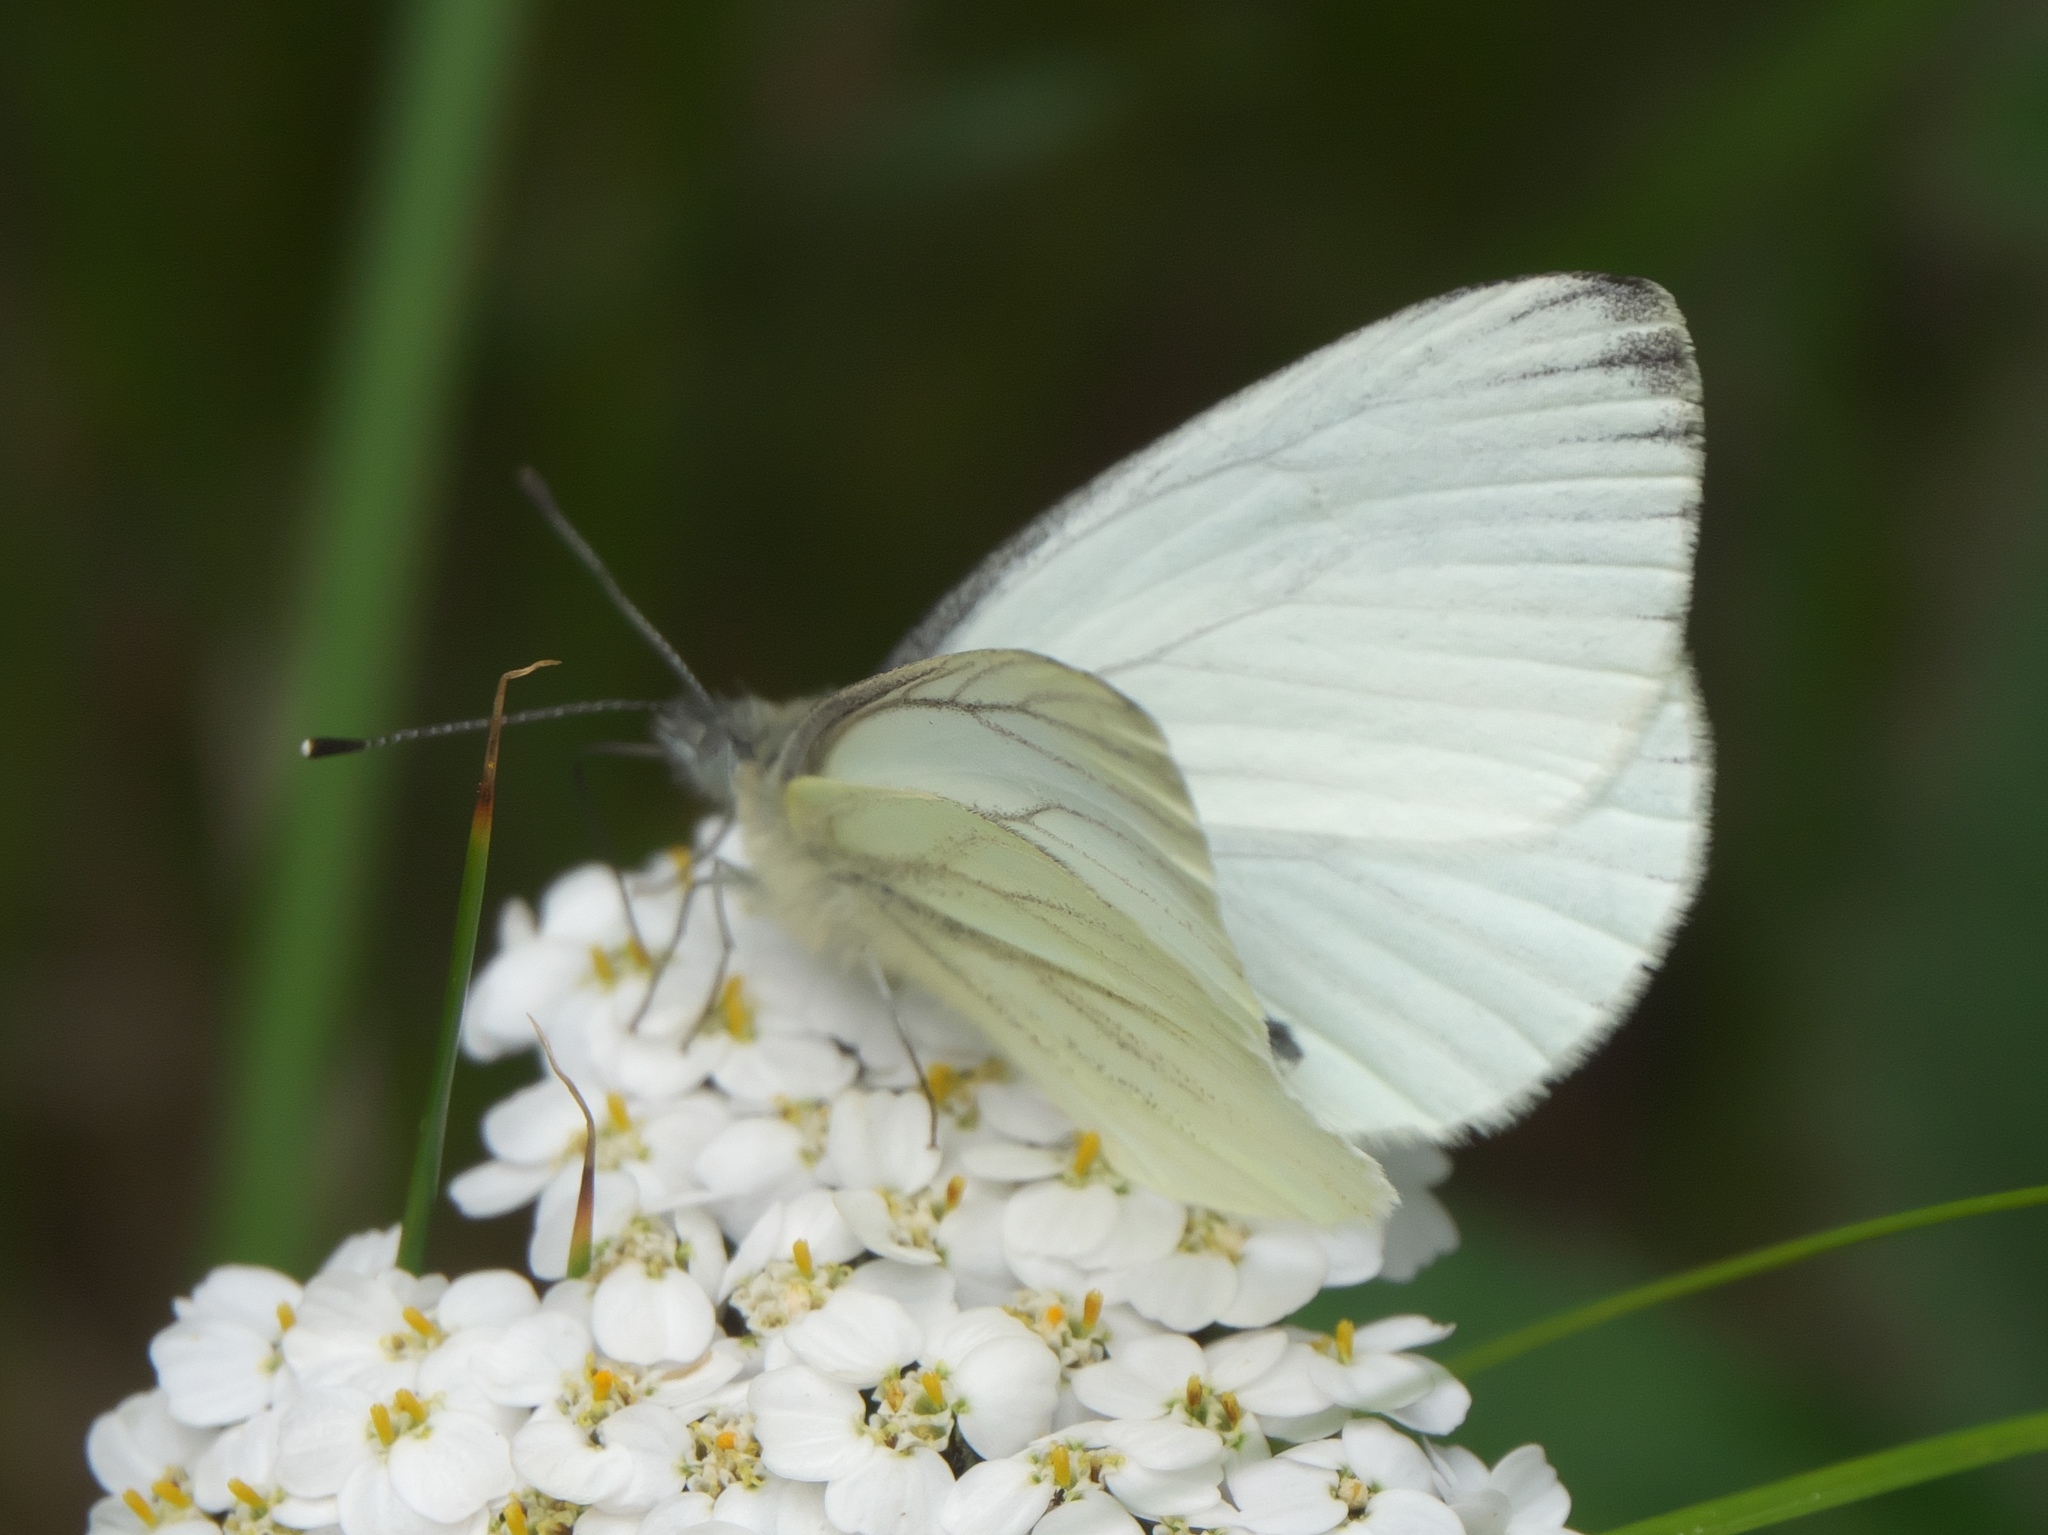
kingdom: Animalia
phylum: Arthropoda
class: Insecta
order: Lepidoptera
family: Pieridae
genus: Pieris
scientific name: Pieris marginalis
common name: Margined white
